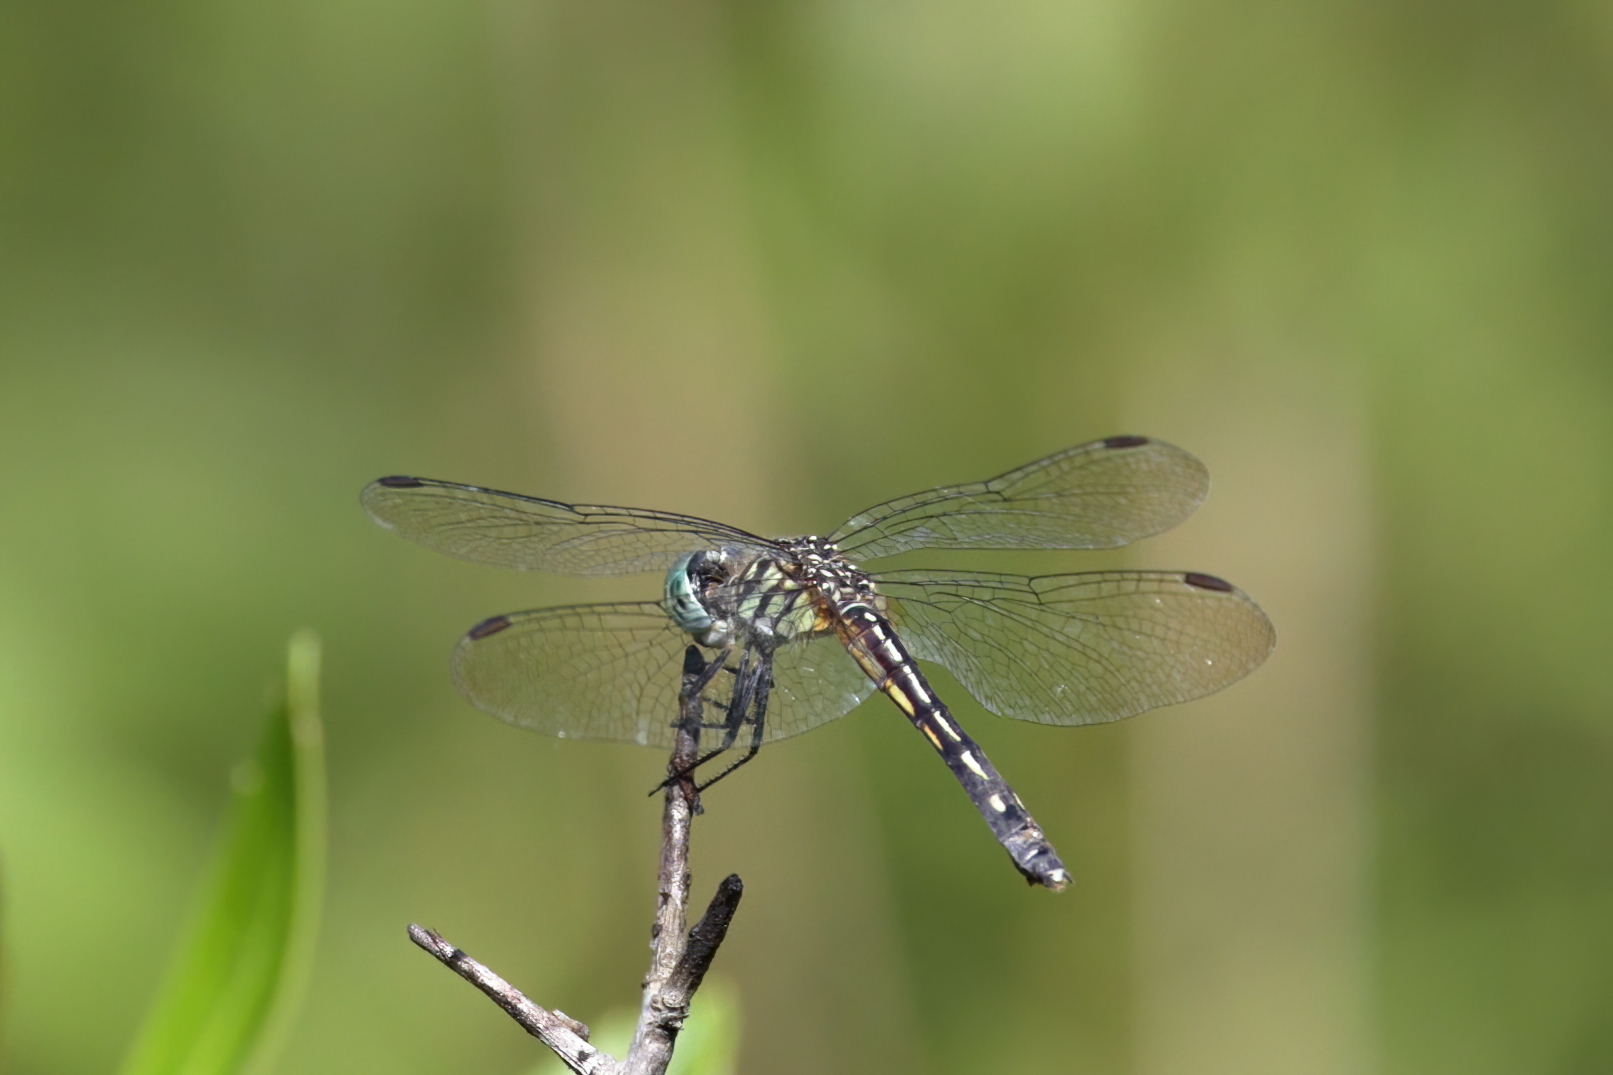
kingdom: Animalia
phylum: Arthropoda
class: Insecta
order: Odonata
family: Libellulidae
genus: Pachydiplax
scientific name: Pachydiplax longipennis
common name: Blue dasher
